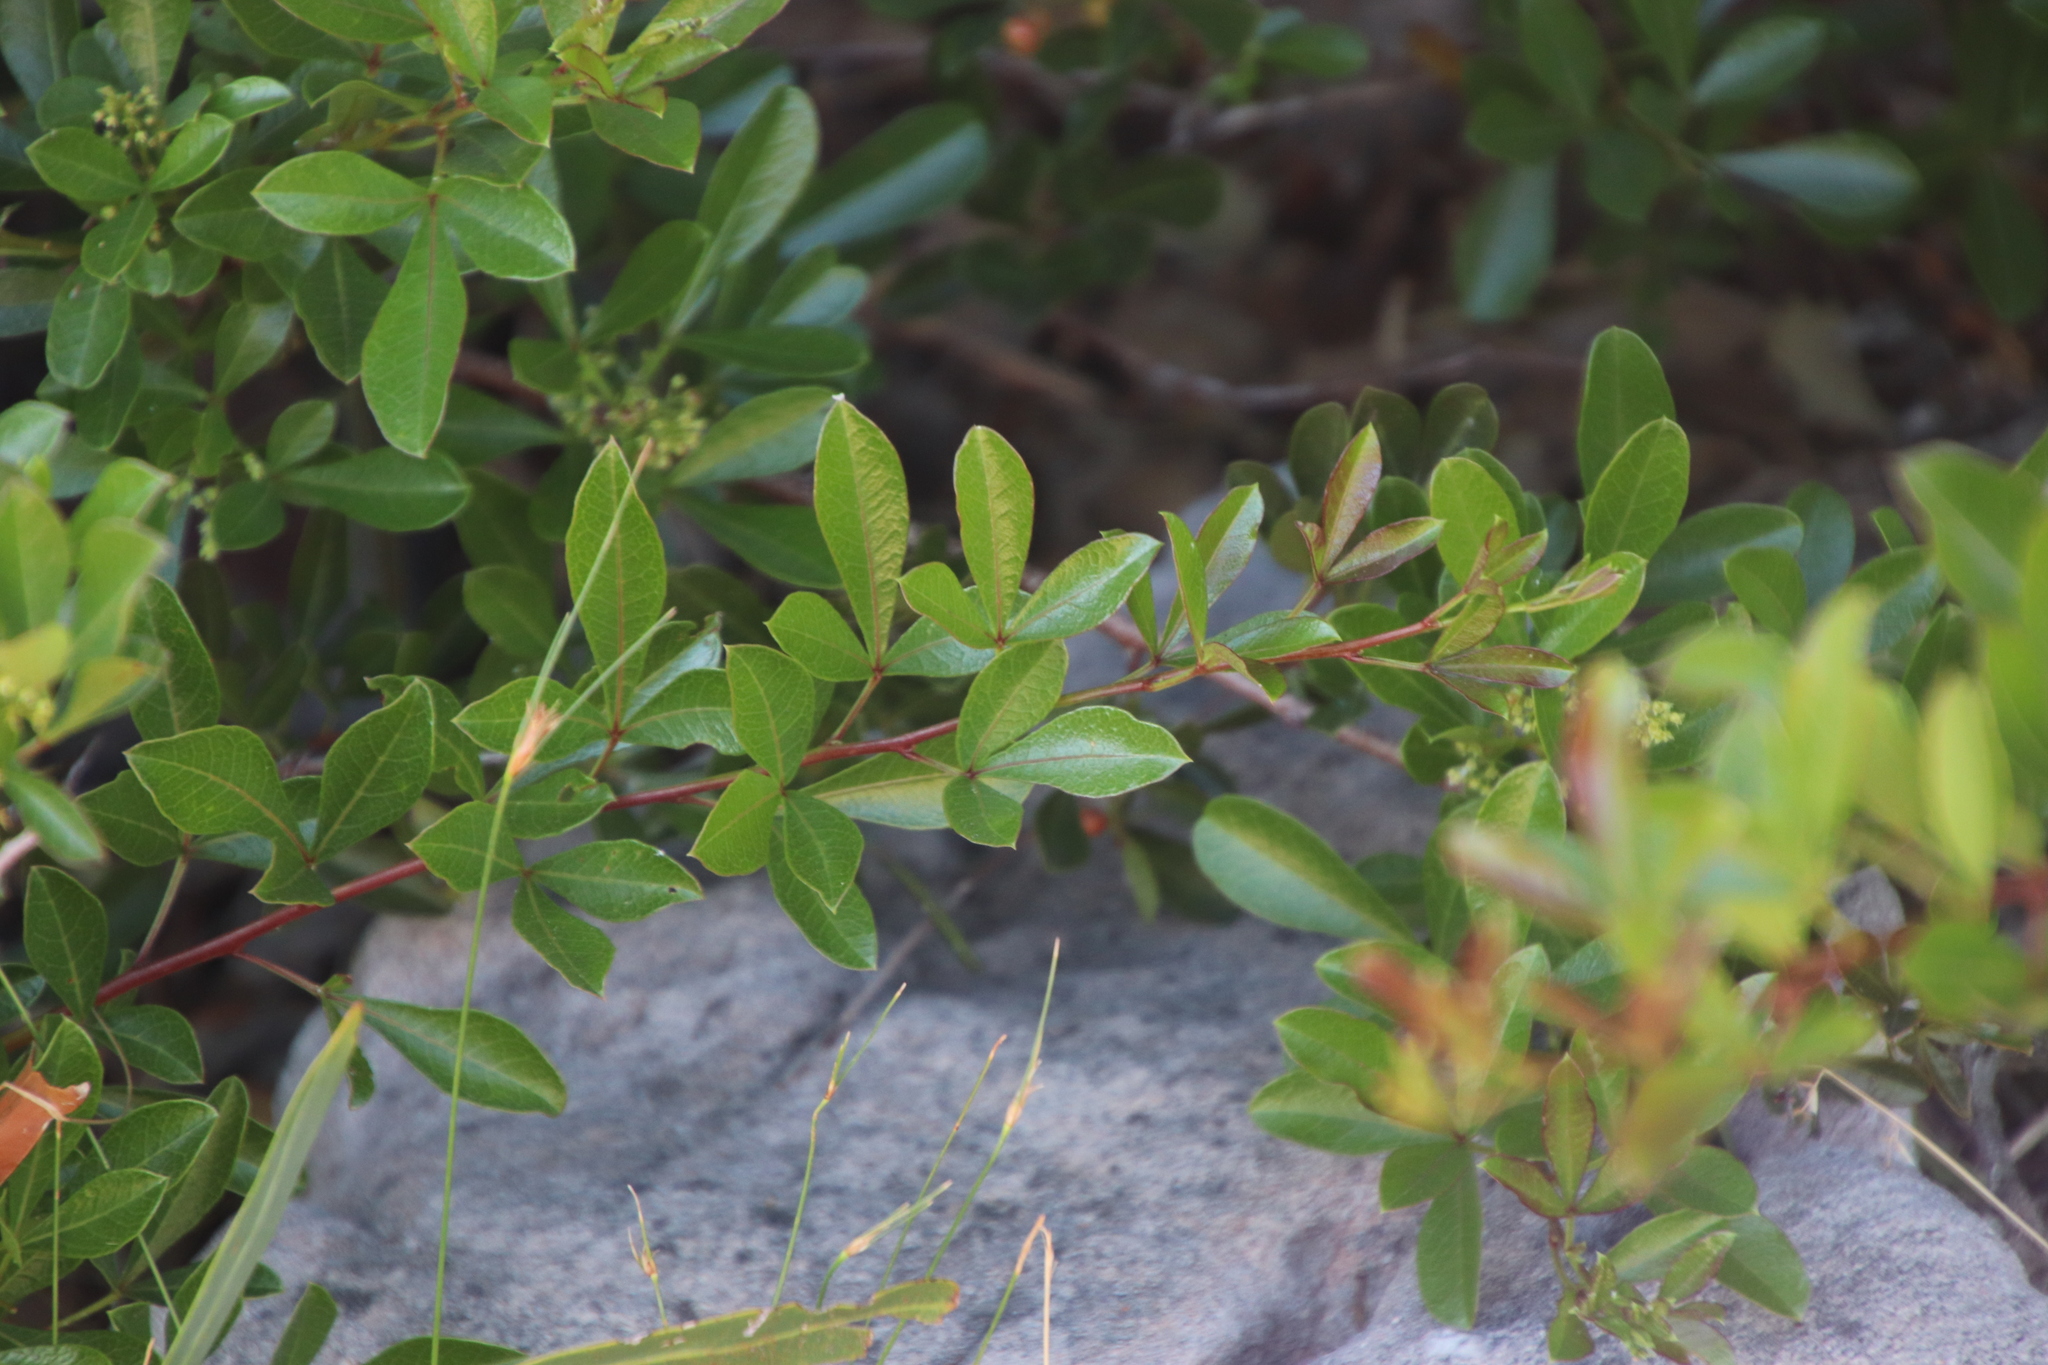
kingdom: Plantae
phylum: Tracheophyta
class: Magnoliopsida
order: Sapindales
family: Anacardiaceae
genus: Searsia
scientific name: Searsia laevigata
